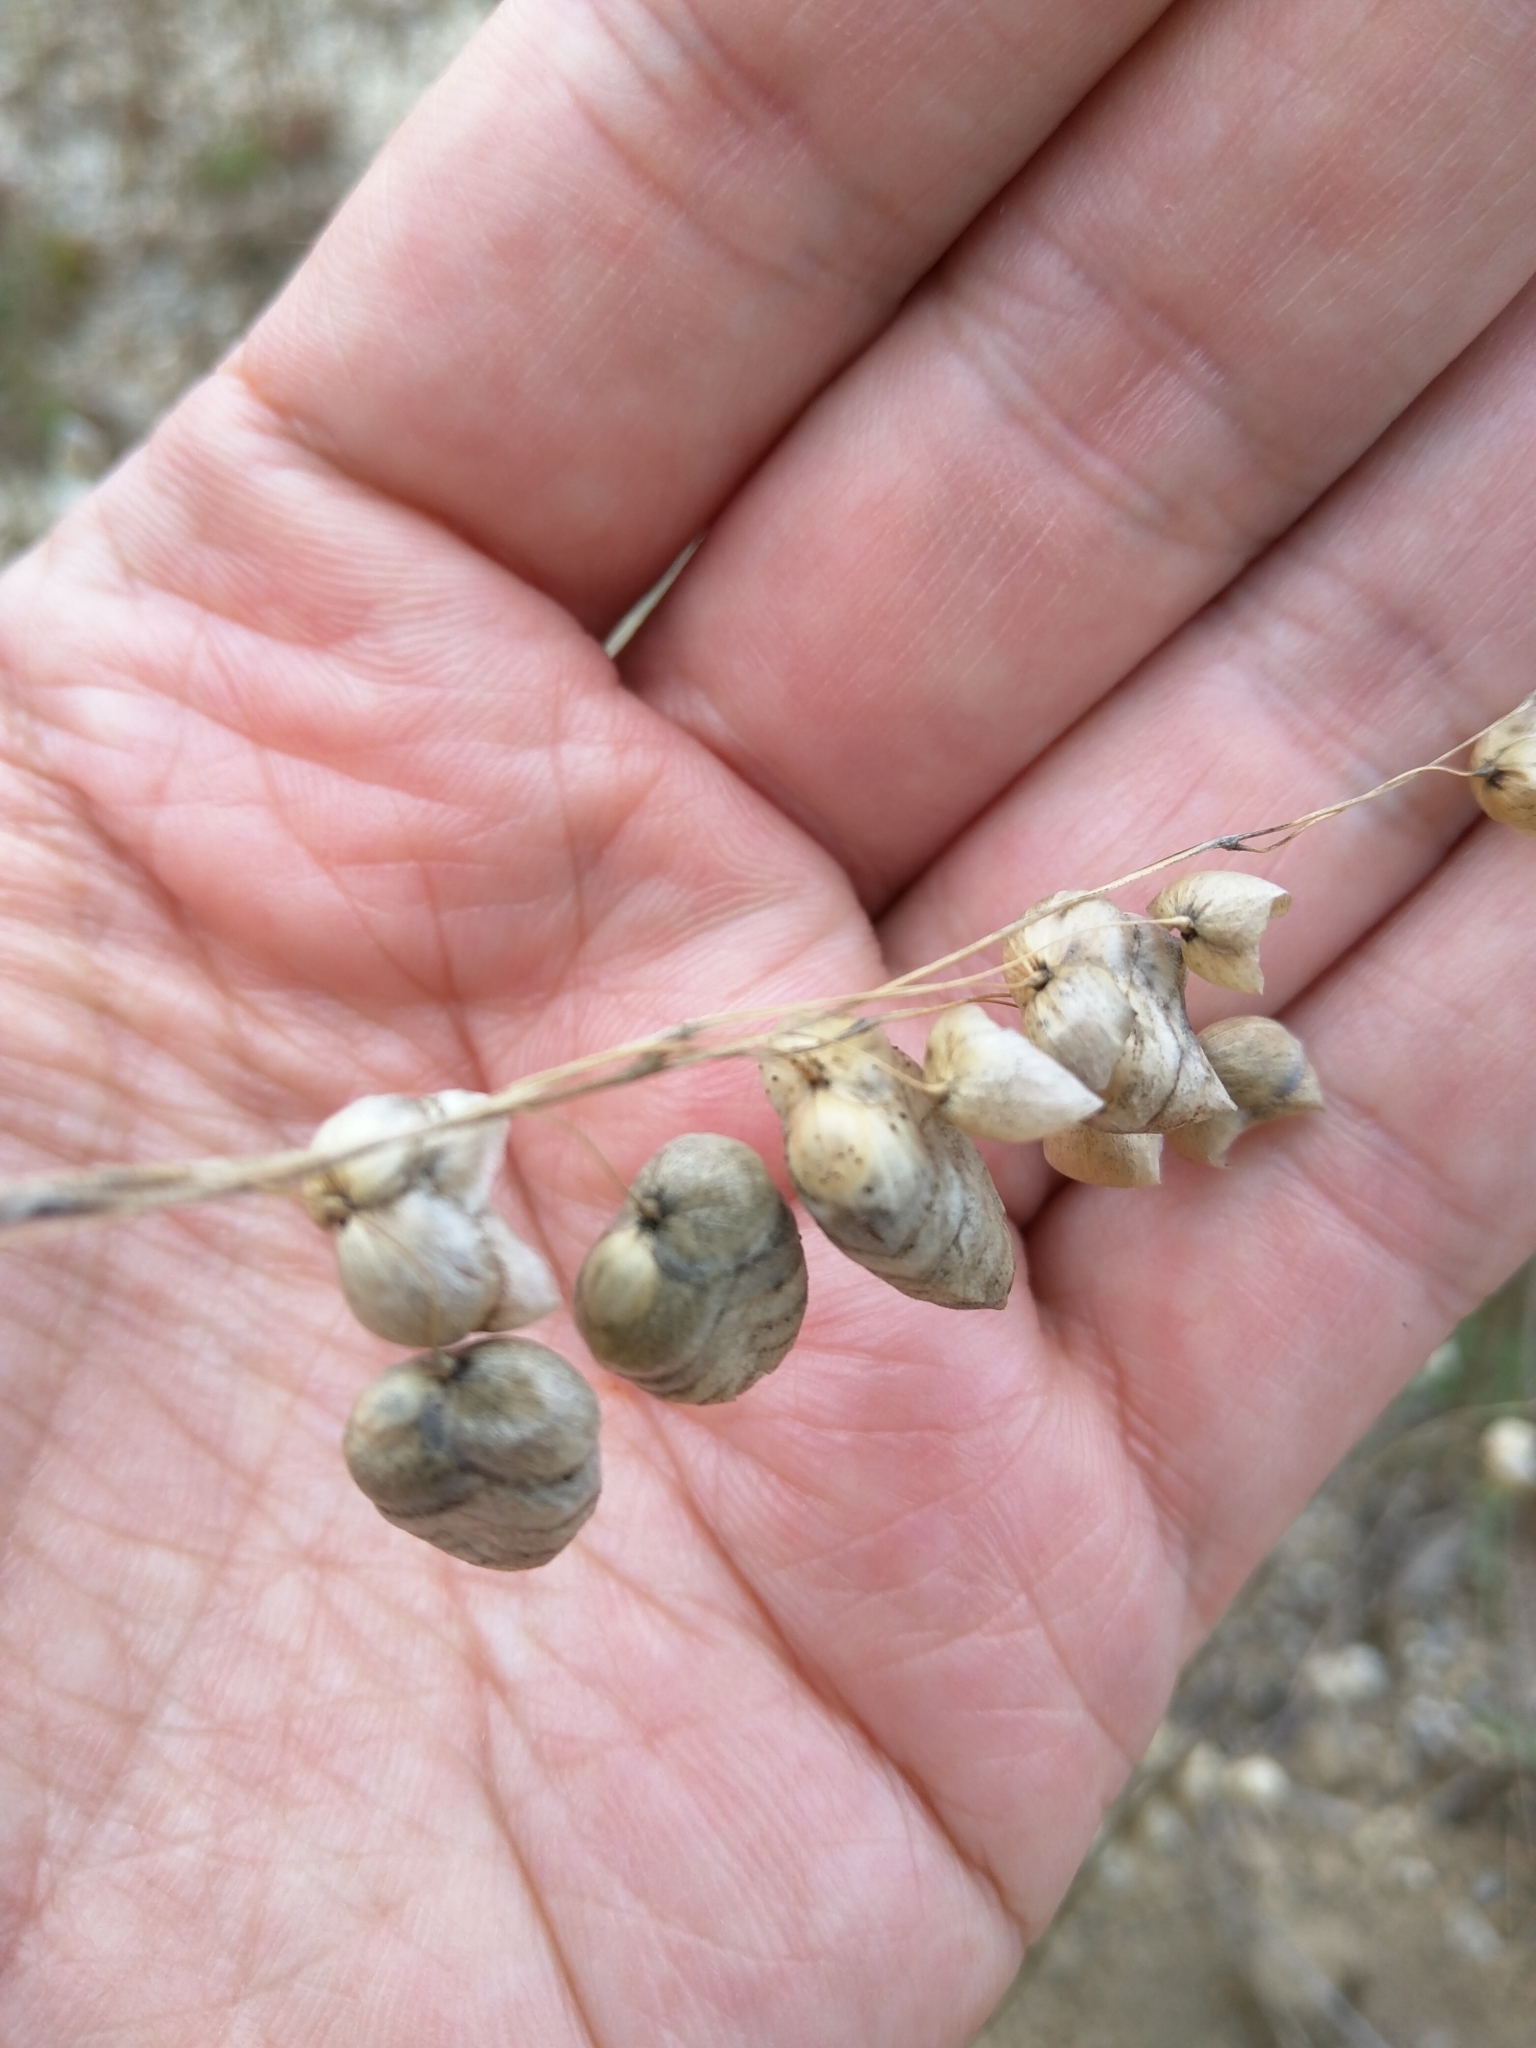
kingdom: Plantae
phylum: Tracheophyta
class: Liliopsida
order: Poales
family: Poaceae
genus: Briza
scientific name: Briza maxima
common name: Big quakinggrass
